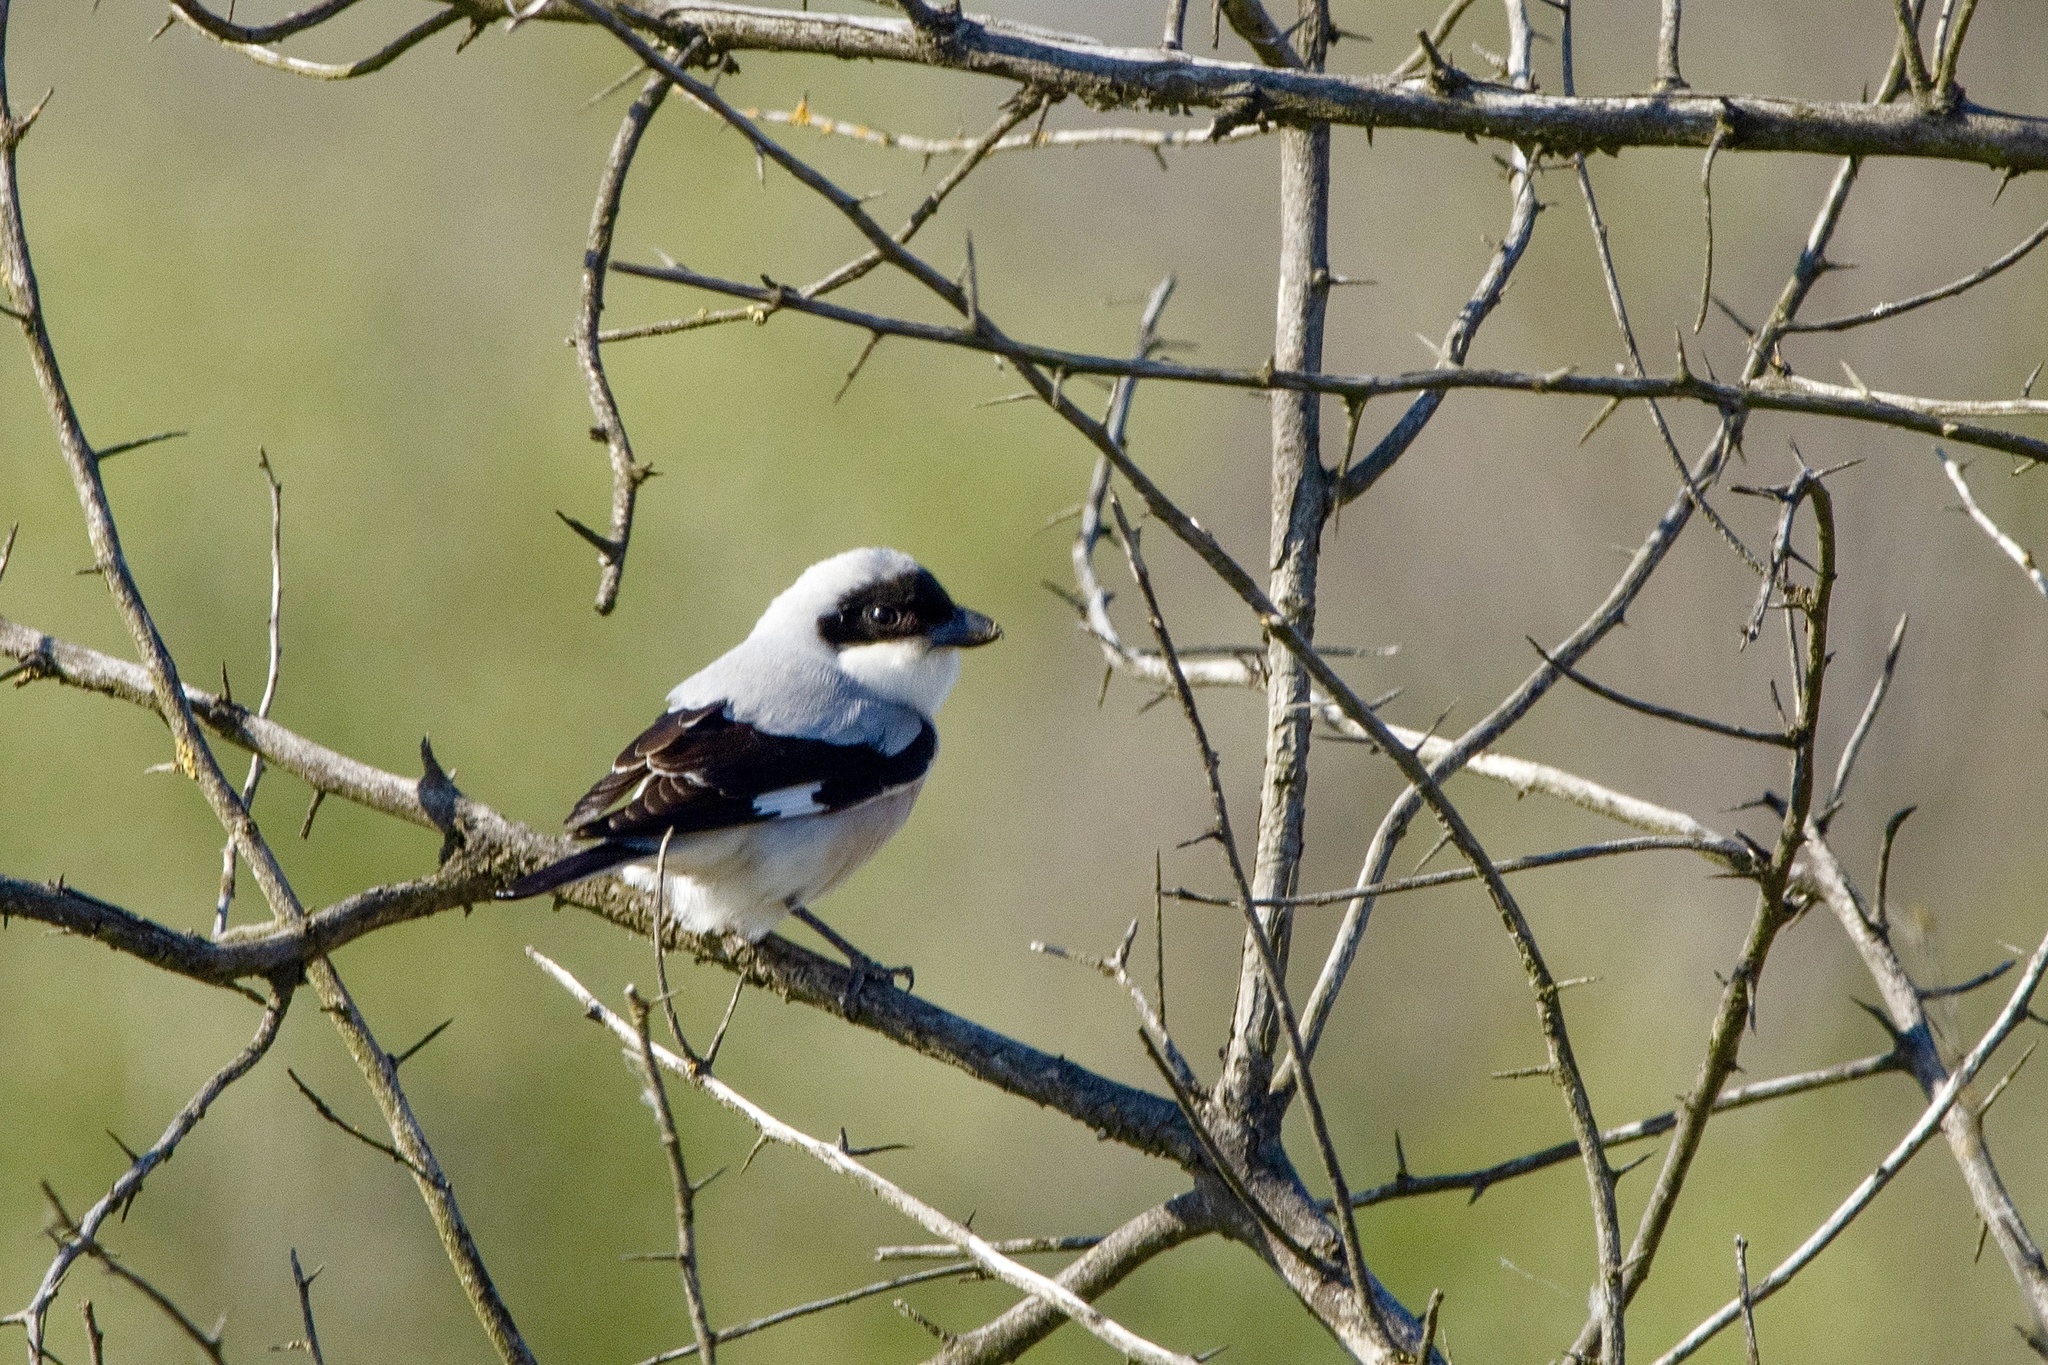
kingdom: Animalia
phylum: Chordata
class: Aves
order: Passeriformes
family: Laniidae
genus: Lanius
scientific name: Lanius minor
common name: Lesser grey shrike
